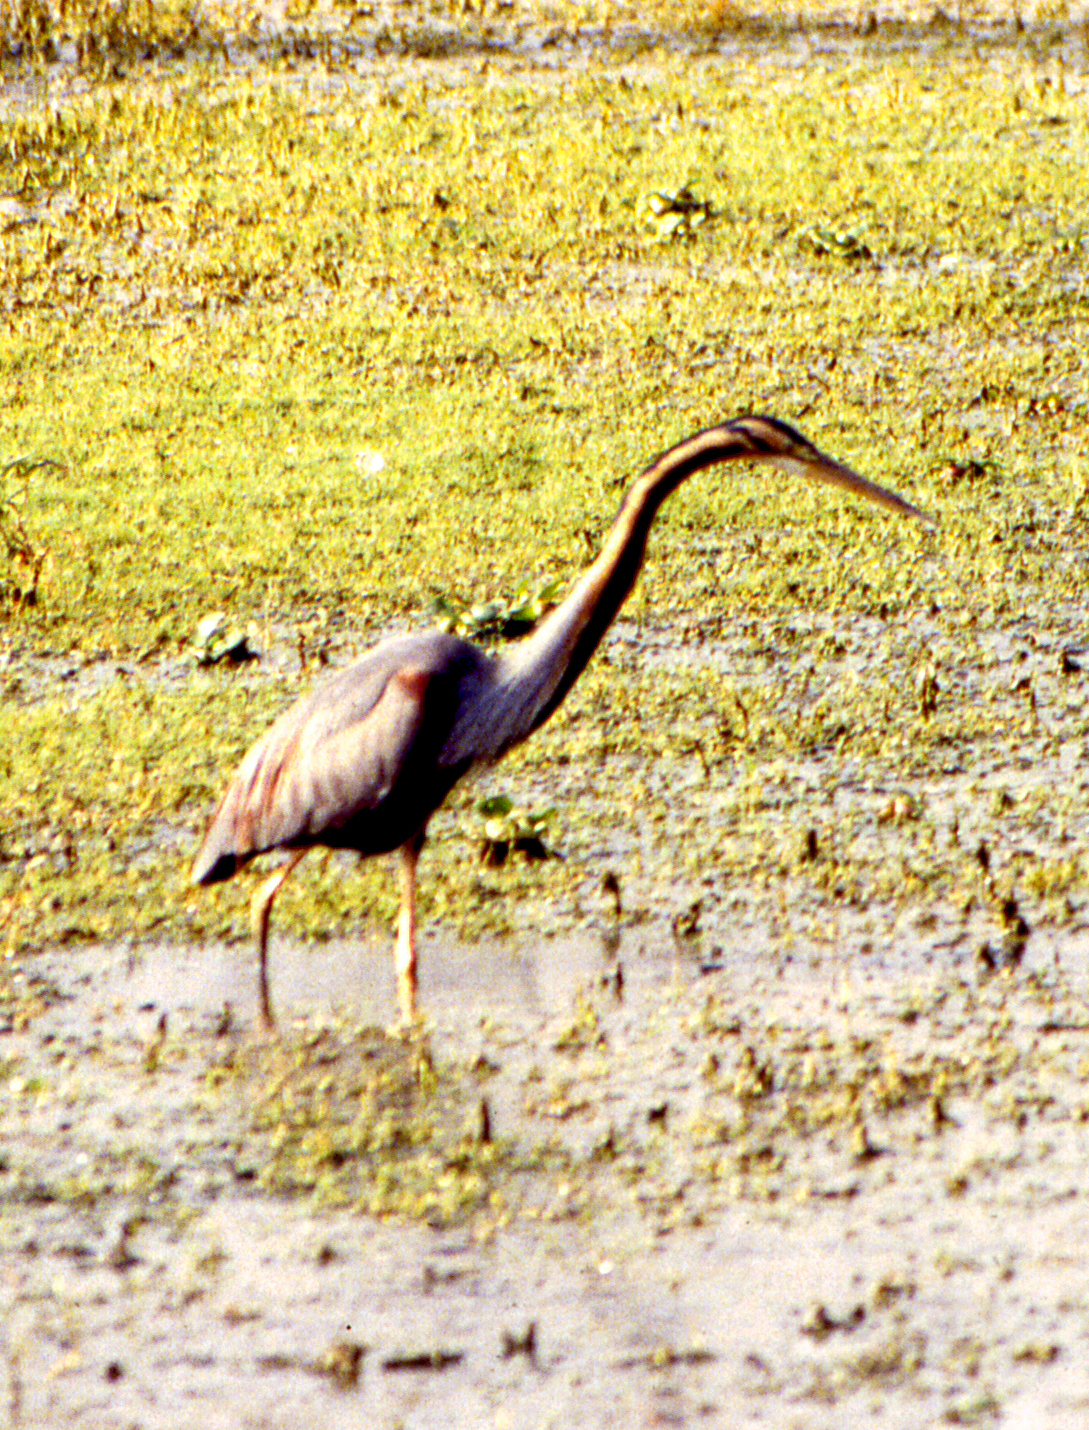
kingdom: Animalia
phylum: Chordata
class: Aves
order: Pelecaniformes
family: Ardeidae
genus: Ardea
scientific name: Ardea purpurea
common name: Purple heron
